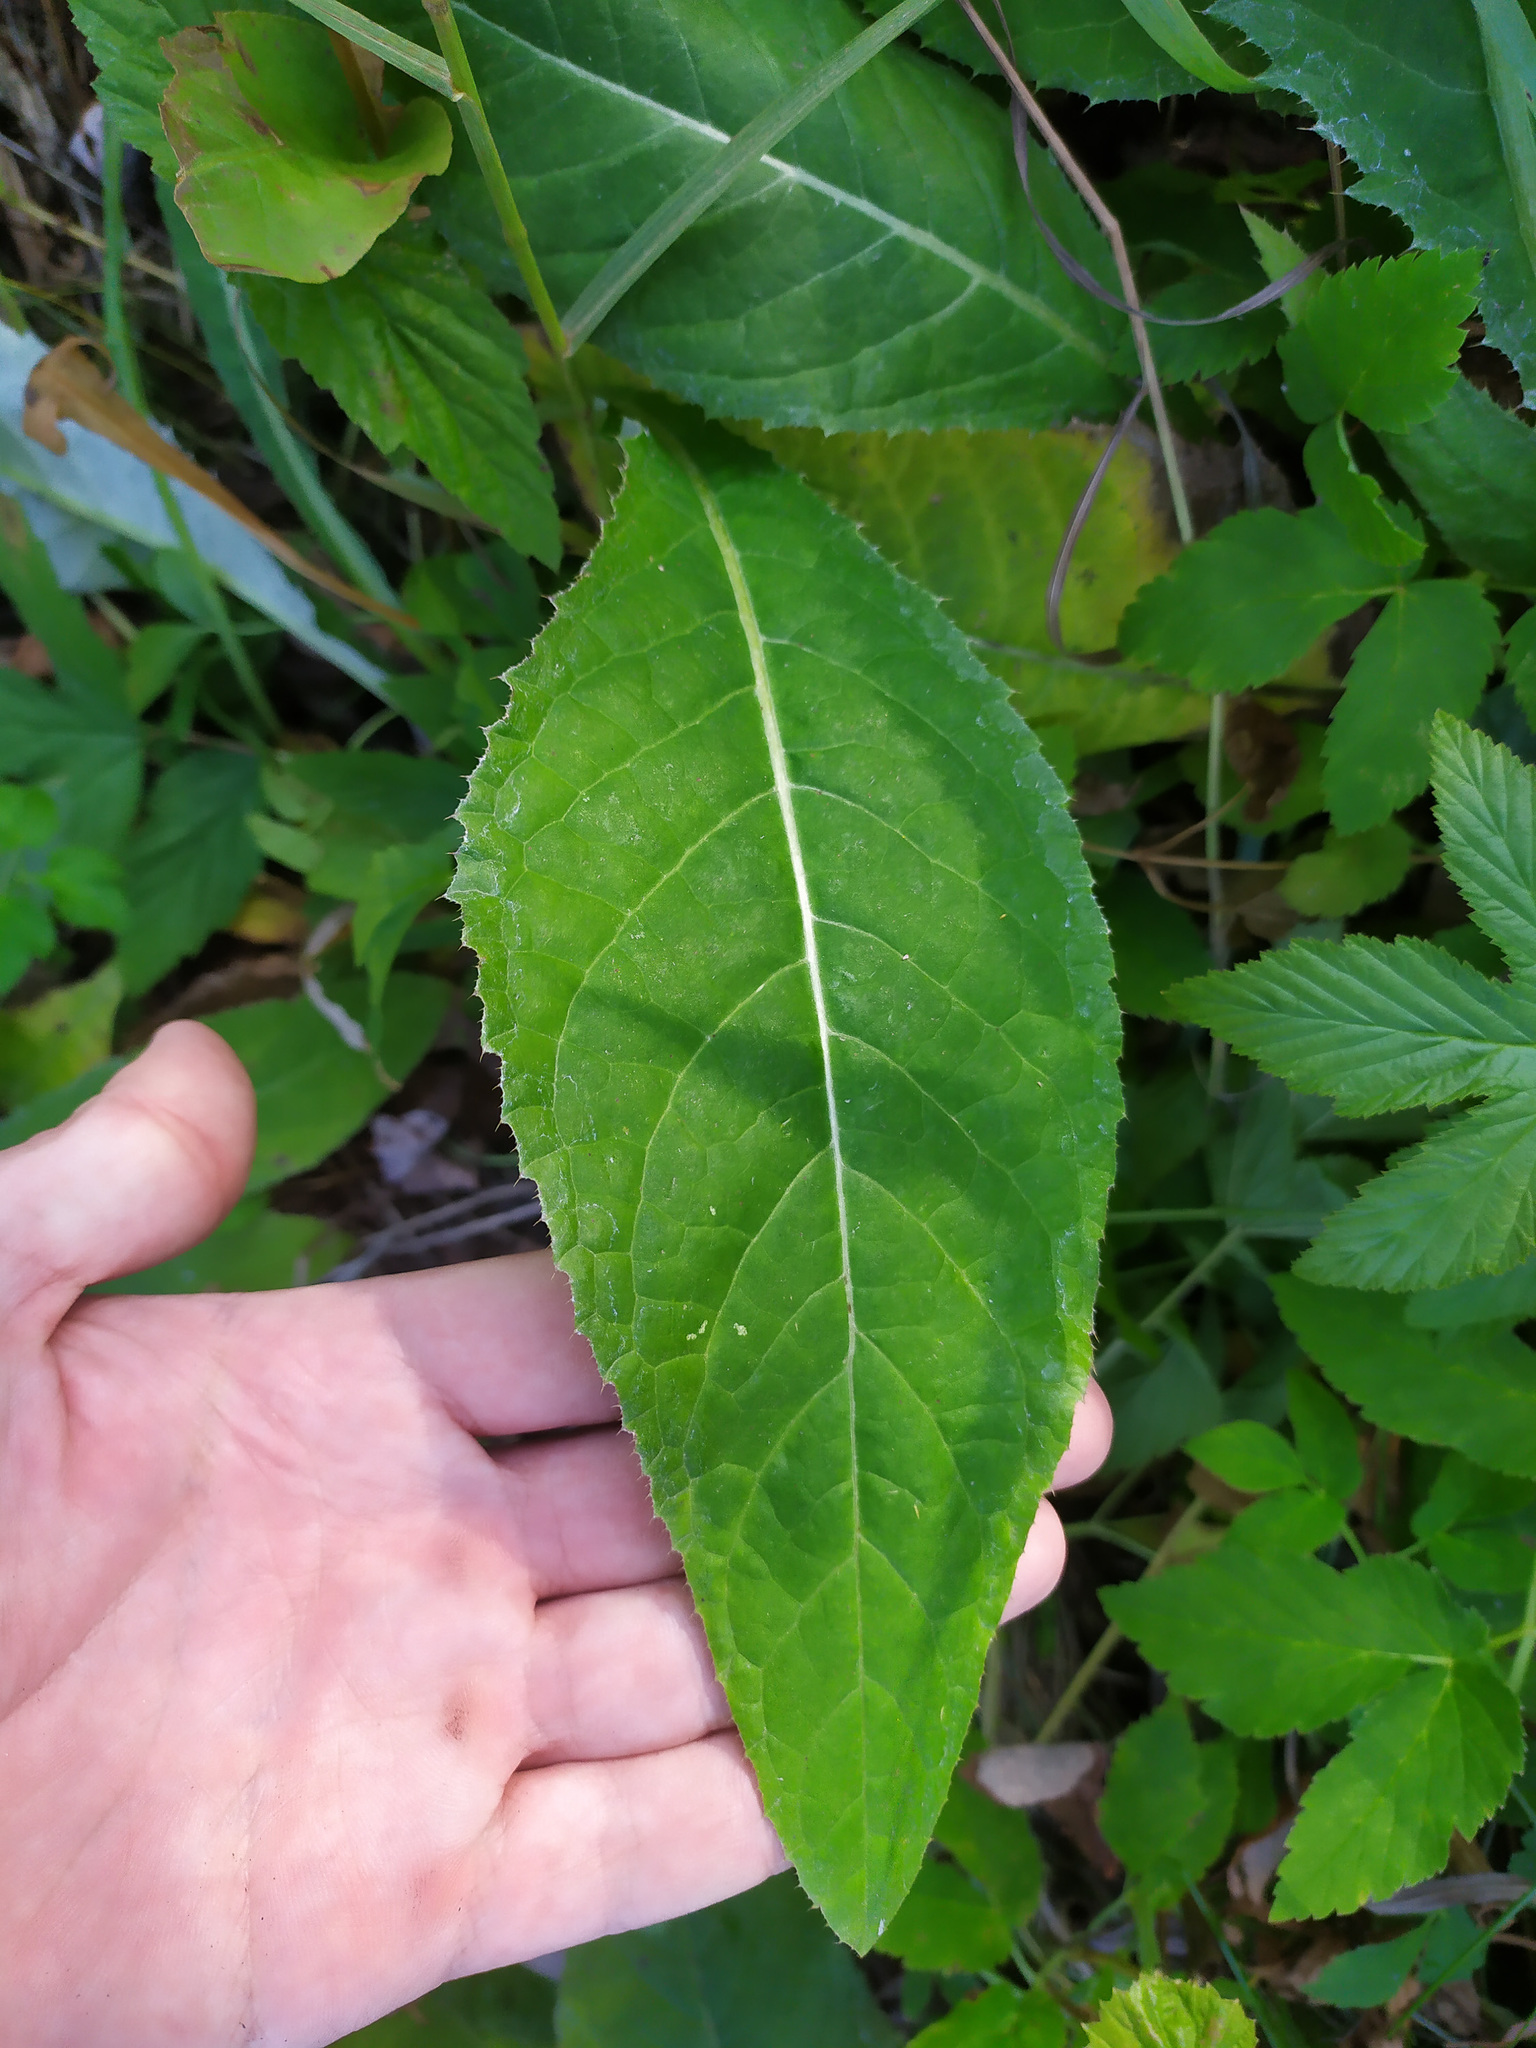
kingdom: Plantae
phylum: Tracheophyta
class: Magnoliopsida
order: Asterales
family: Asteraceae
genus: Cirsium
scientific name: Cirsium heterophyllum
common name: Melancholy thistle
